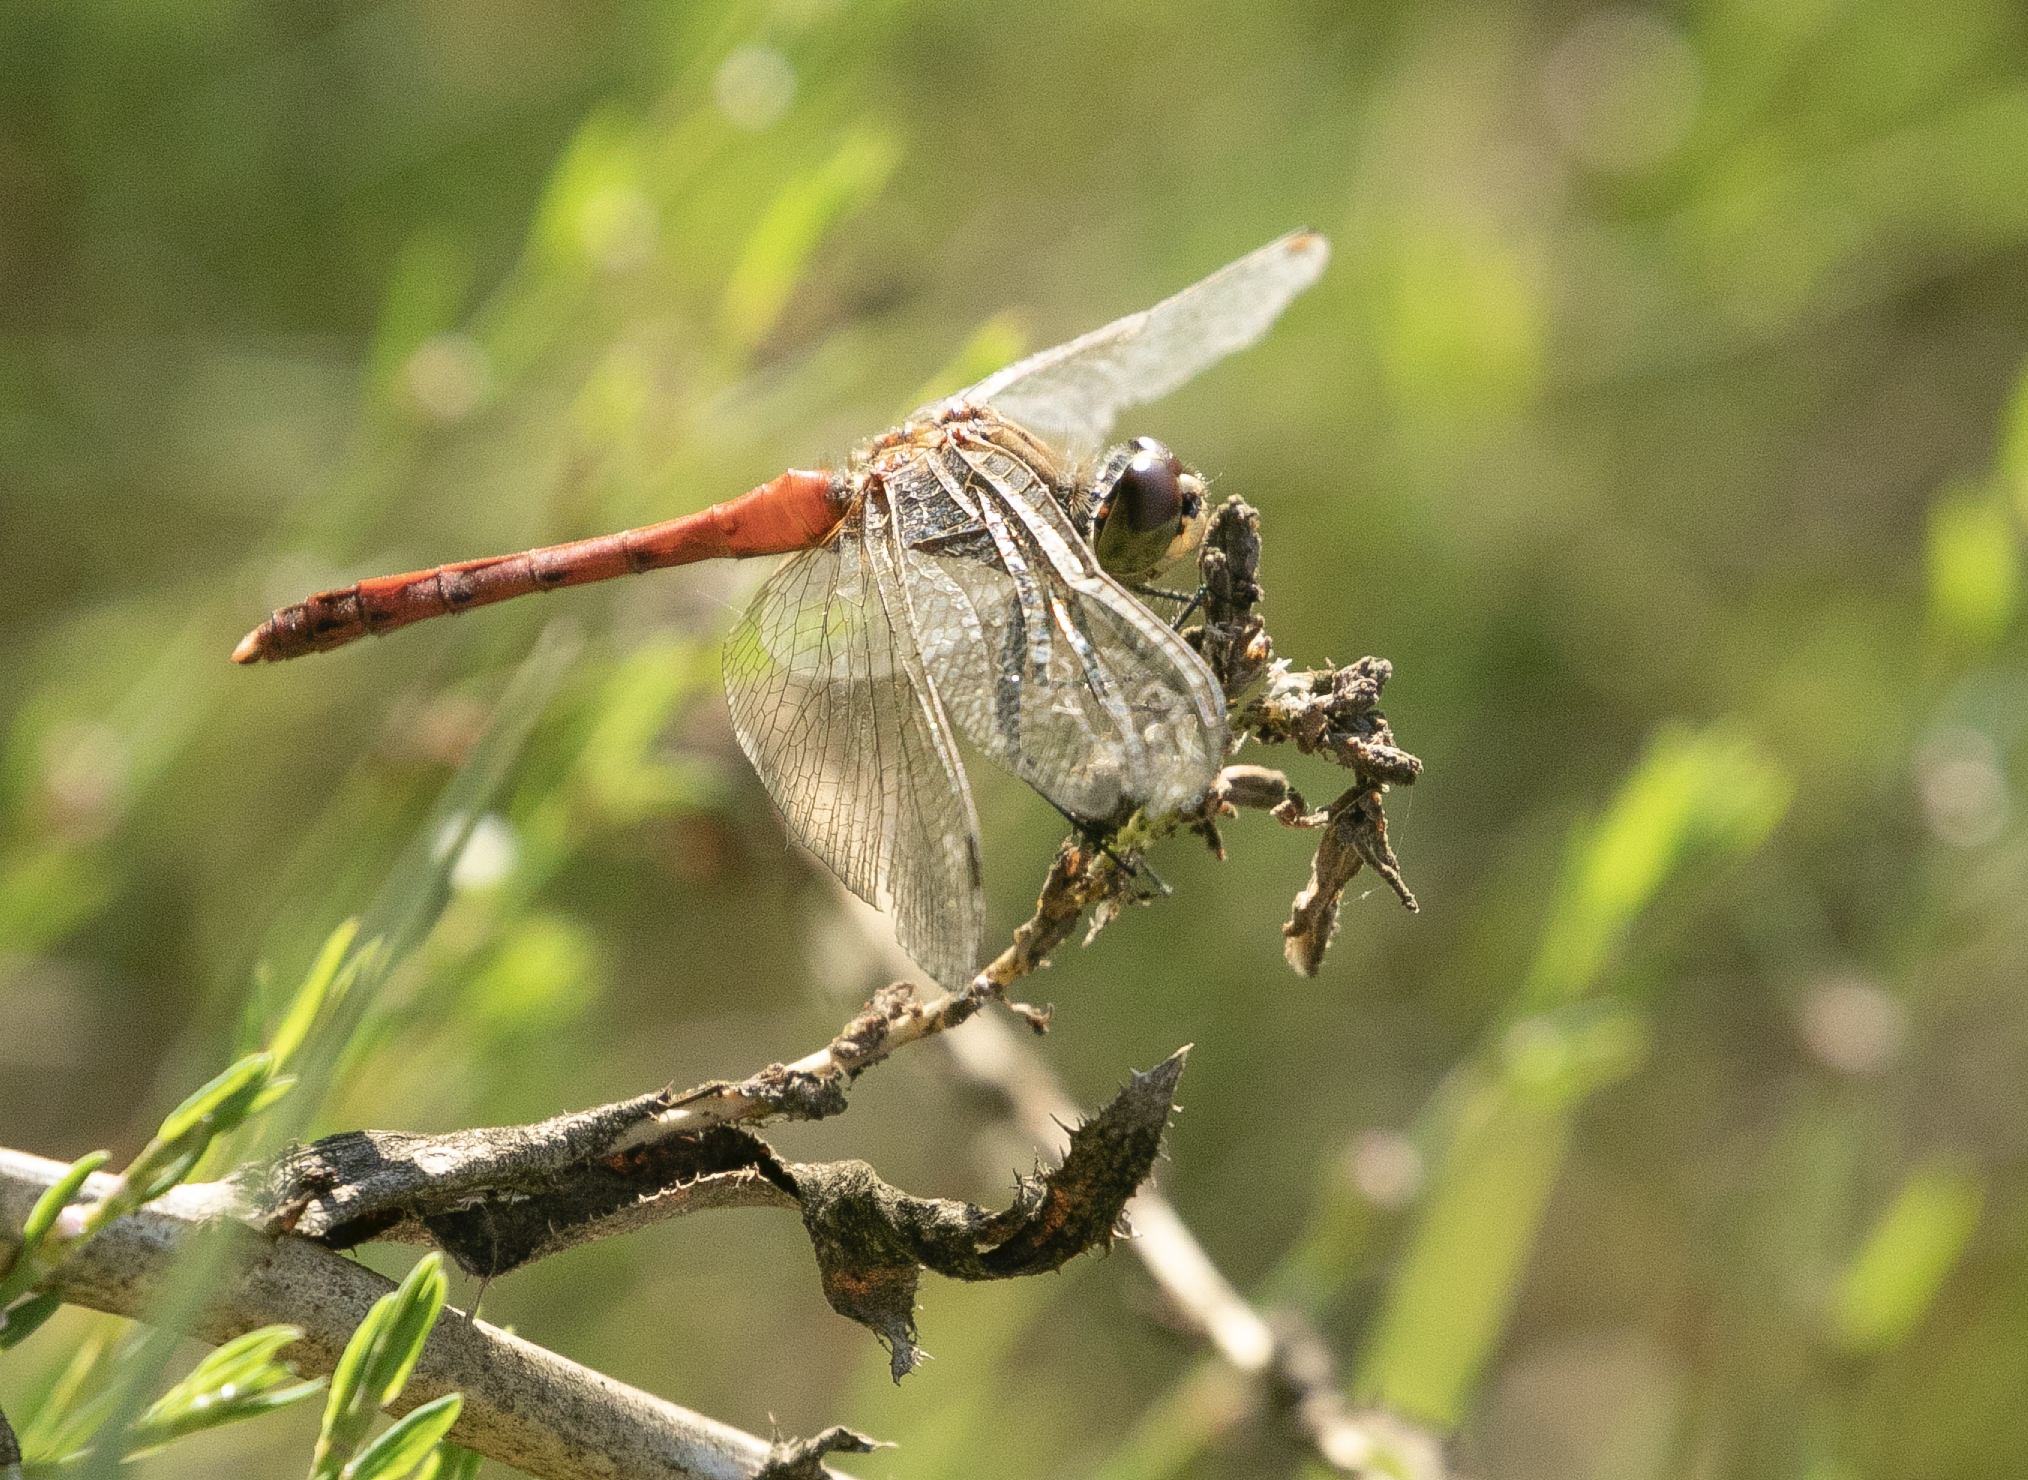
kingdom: Animalia
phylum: Arthropoda
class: Insecta
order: Odonata
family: Libellulidae
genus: Sympetrum
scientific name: Sympetrum depressiusculum
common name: Spotted darter
